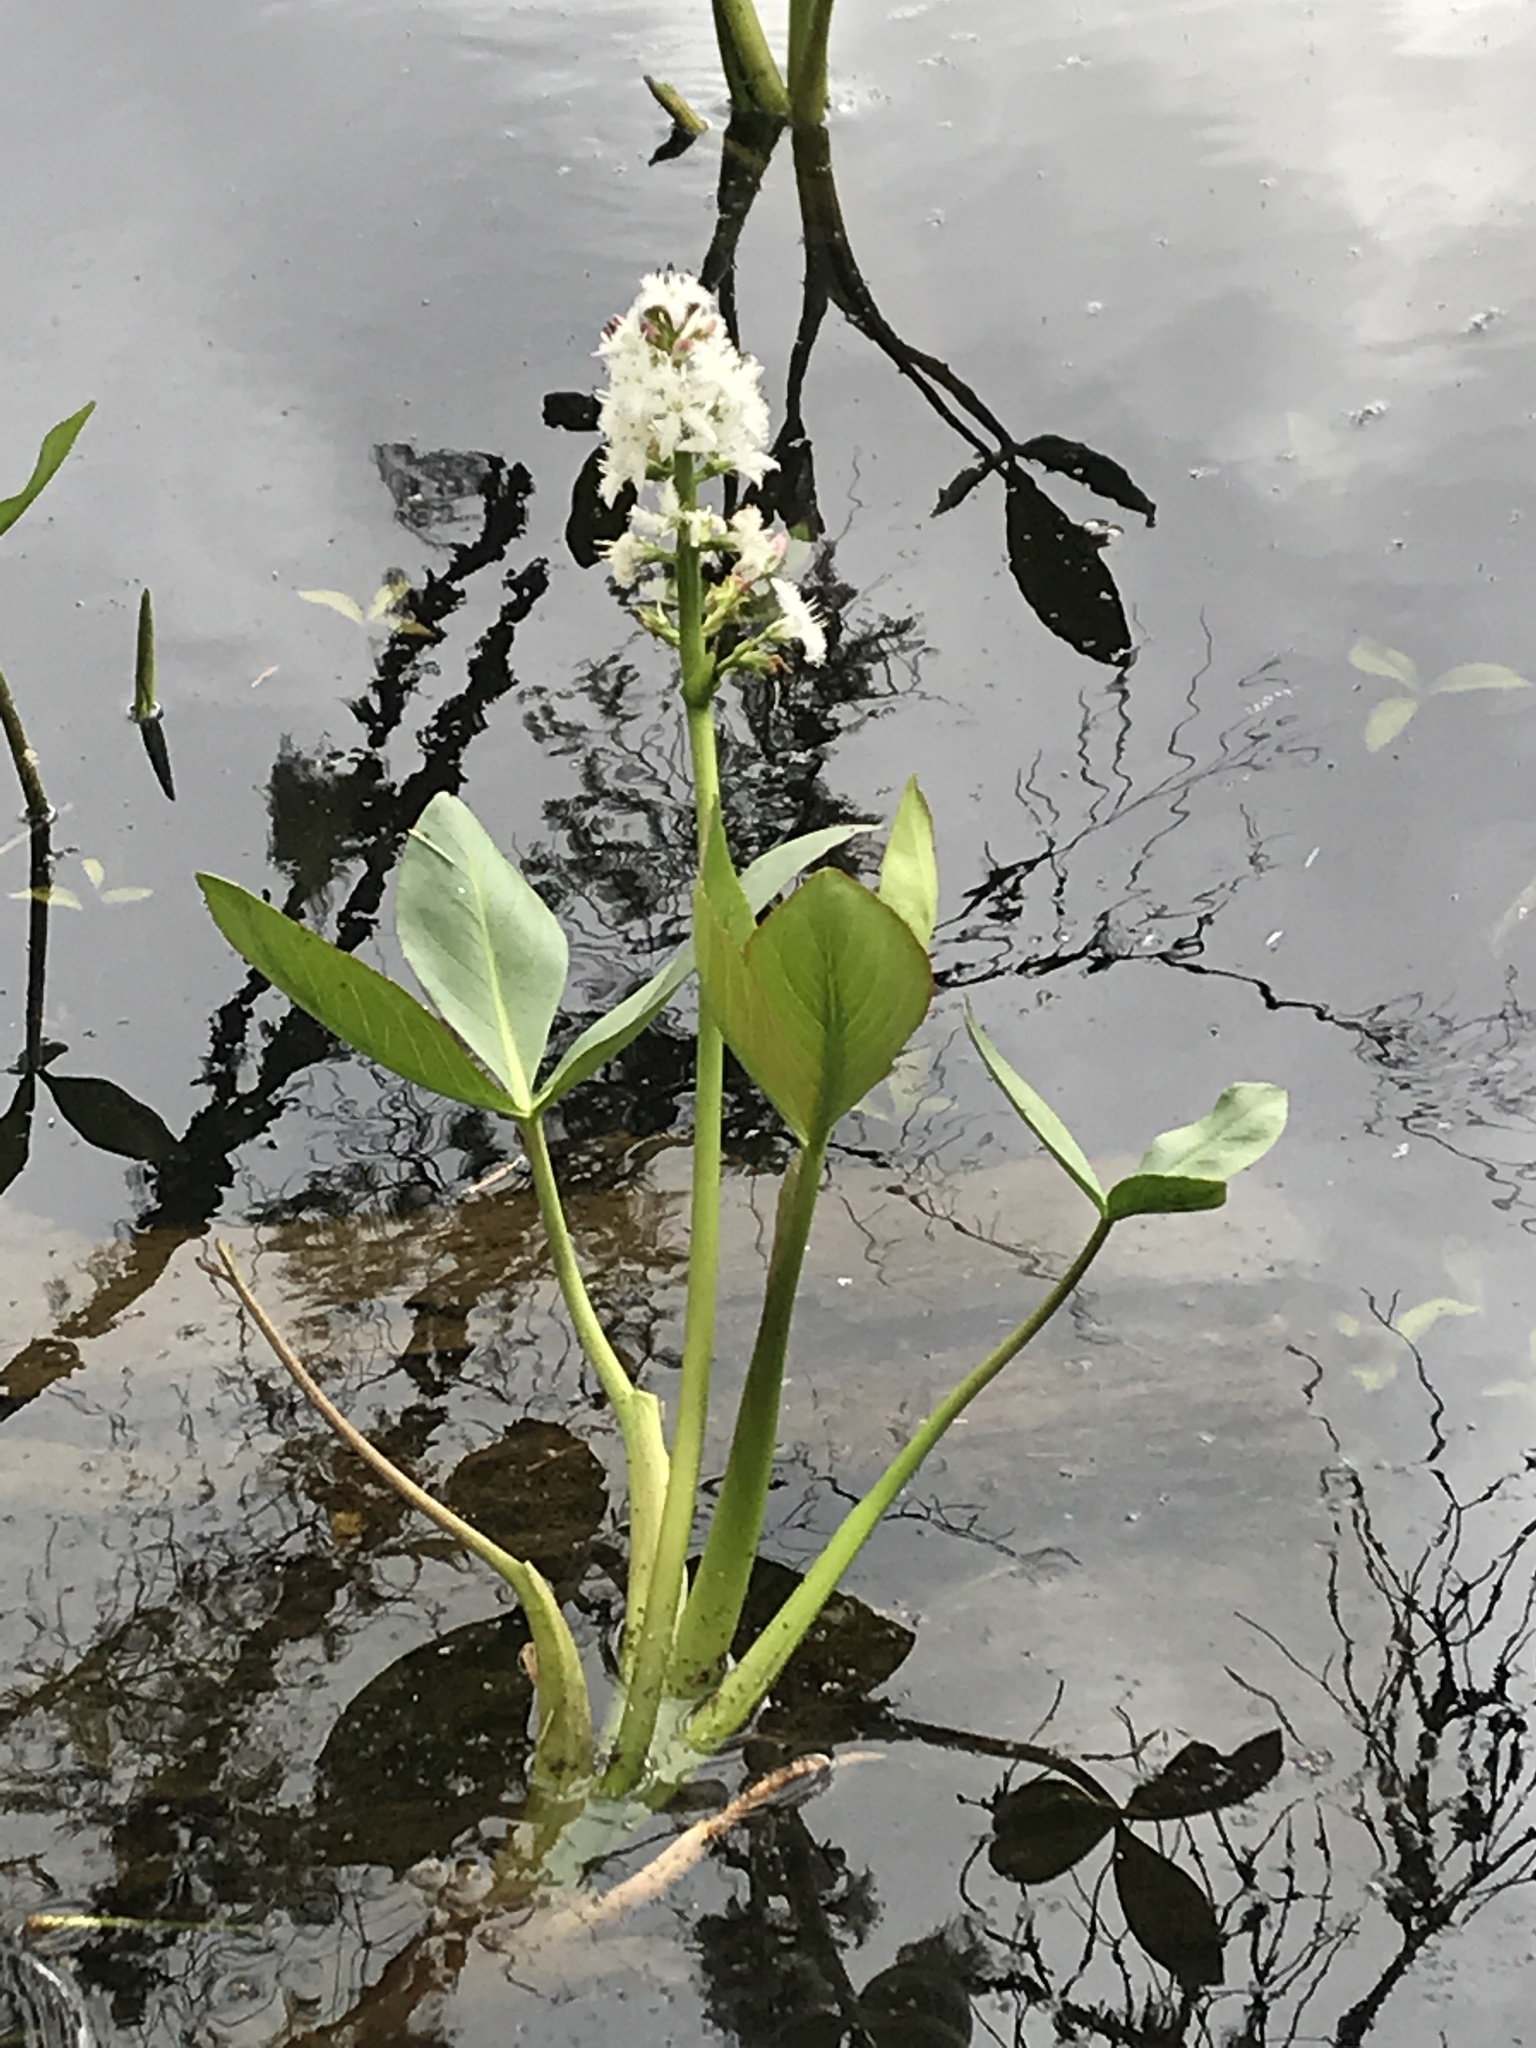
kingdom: Plantae
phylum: Tracheophyta
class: Magnoliopsida
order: Asterales
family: Menyanthaceae
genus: Menyanthes
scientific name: Menyanthes trifoliata
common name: Bogbean
